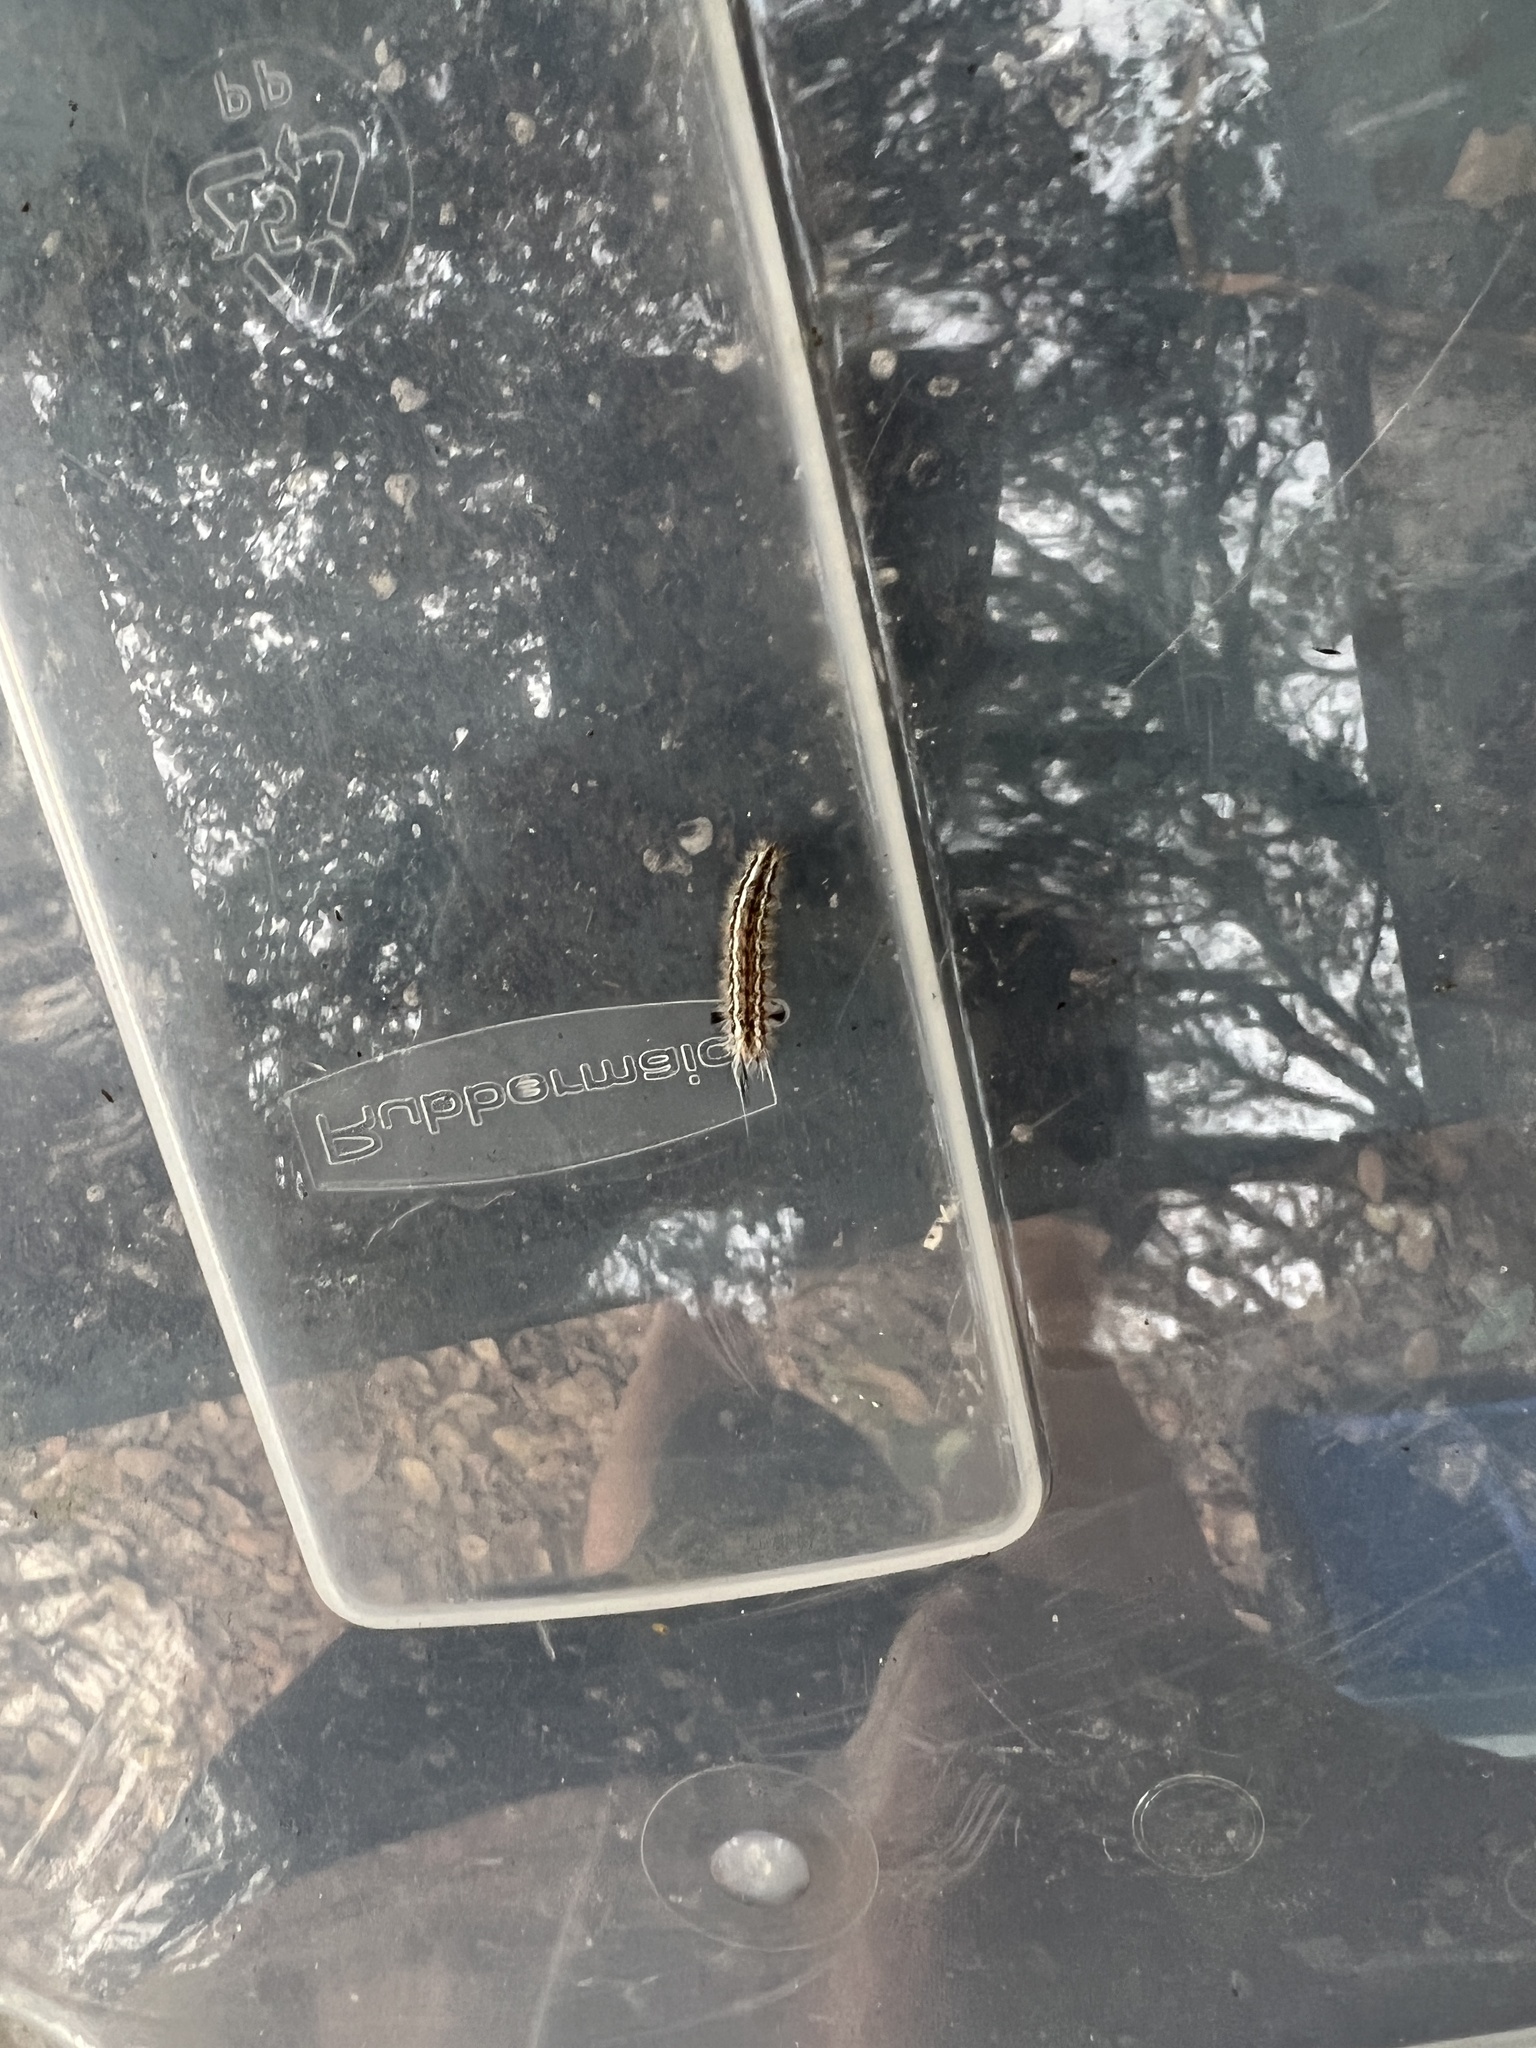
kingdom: Animalia
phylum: Arthropoda
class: Insecta
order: Lepidoptera
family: Erebidae
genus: Dahana
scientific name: Dahana atripennis
